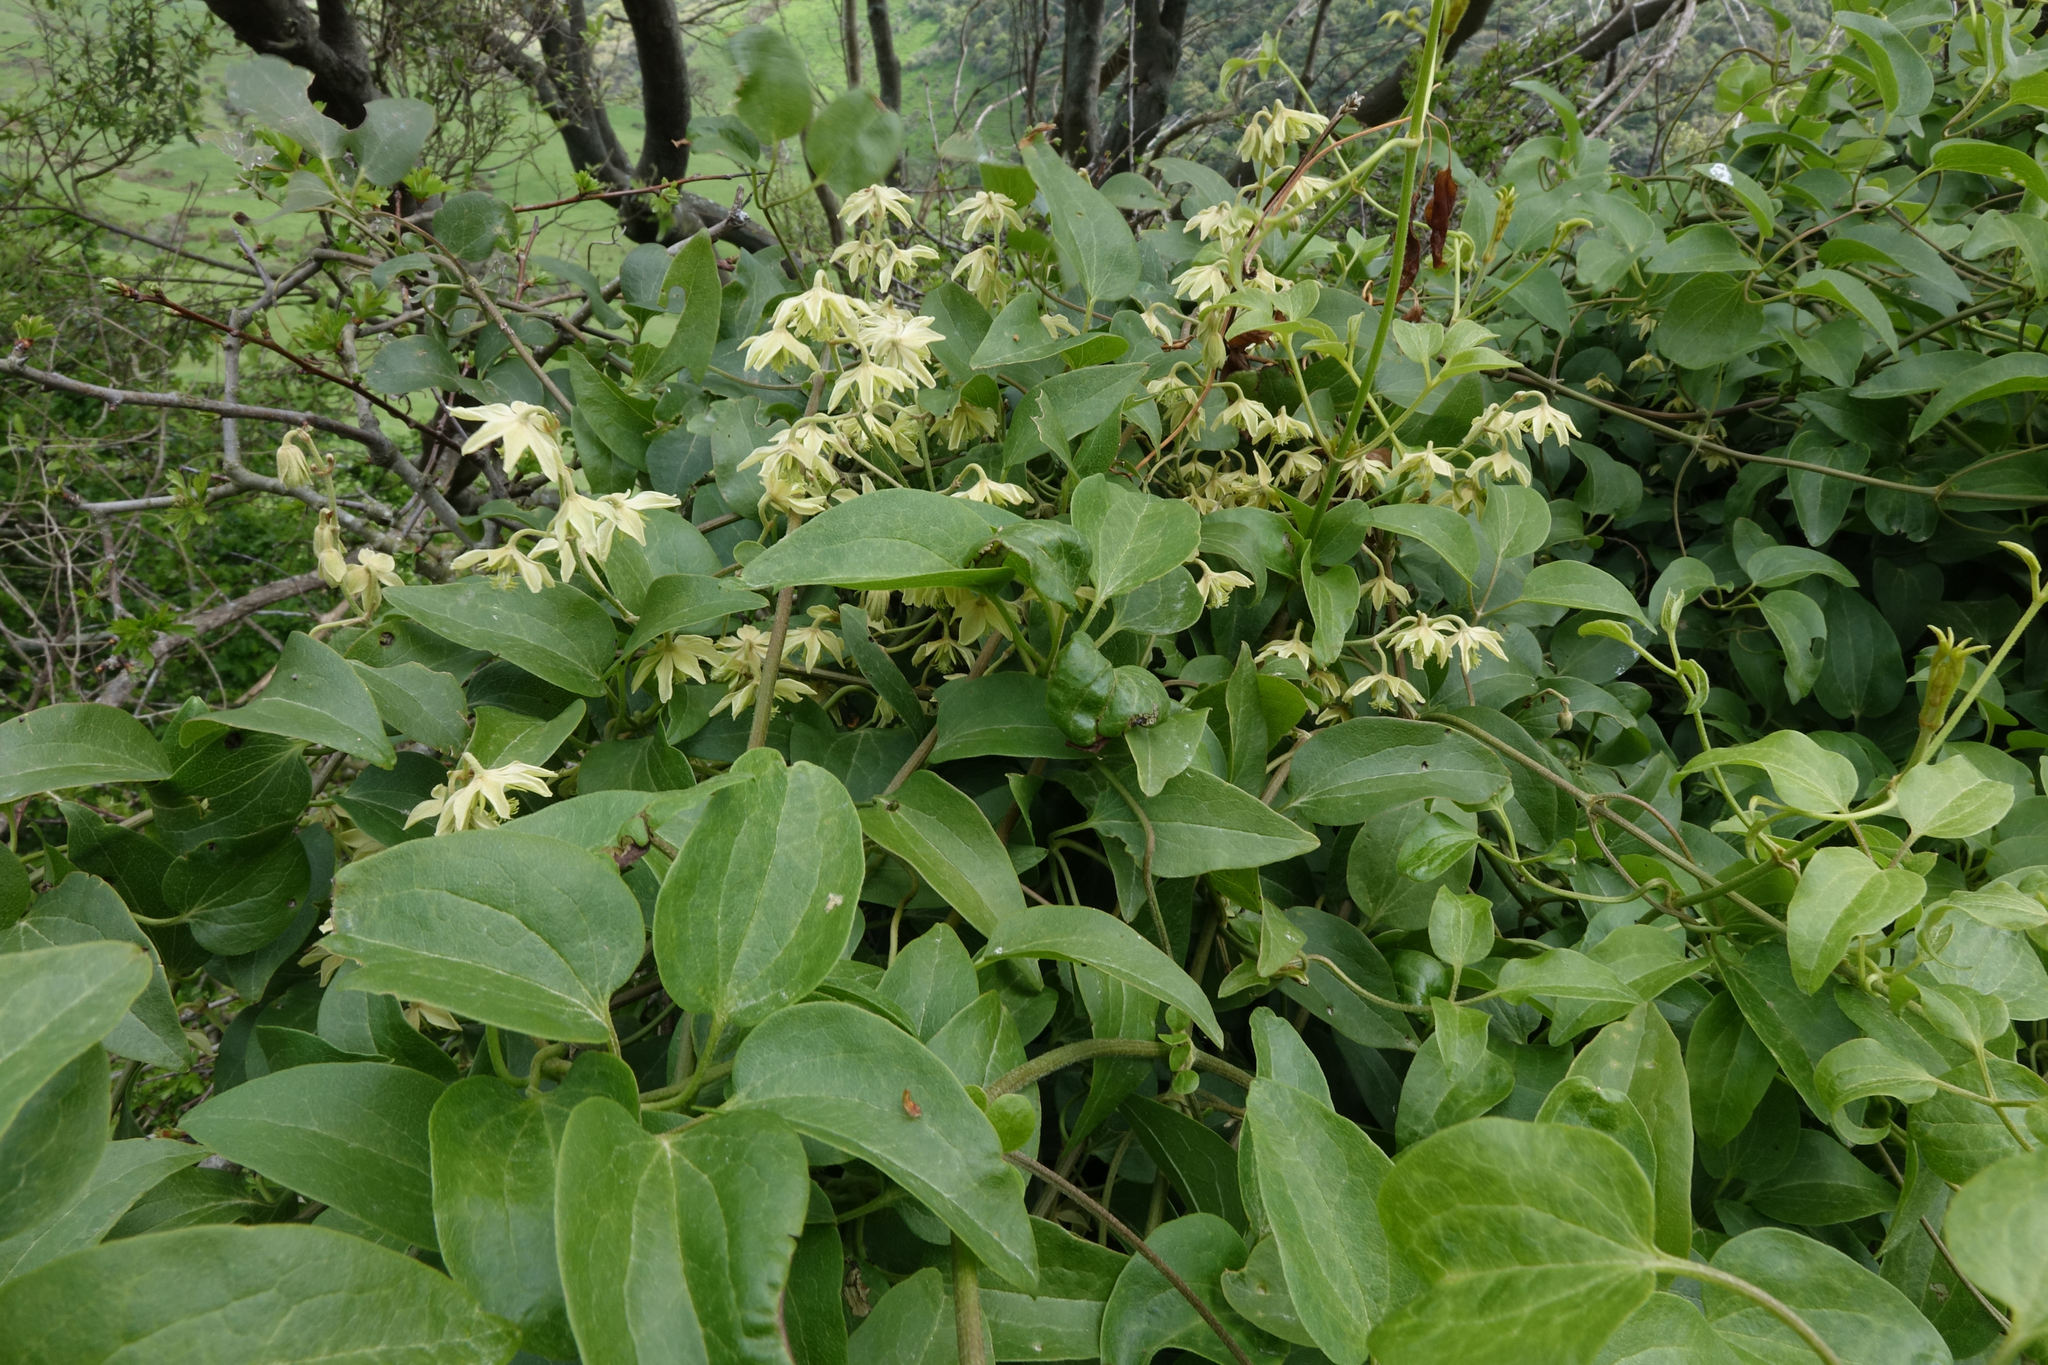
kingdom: Plantae
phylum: Tracheophyta
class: Magnoliopsida
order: Ranunculales
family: Ranunculaceae
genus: Clematis
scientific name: Clematis foetida
